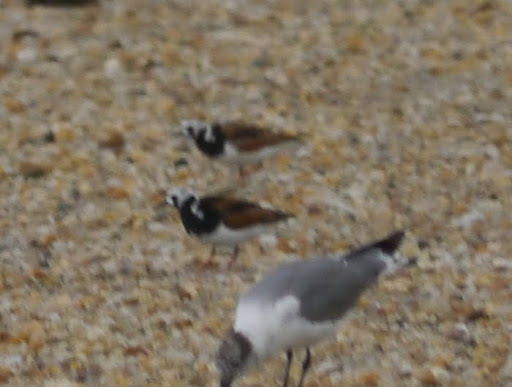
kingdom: Animalia
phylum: Chordata
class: Aves
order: Charadriiformes
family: Scolopacidae
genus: Arenaria
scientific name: Arenaria interpres
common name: Ruddy turnstone
